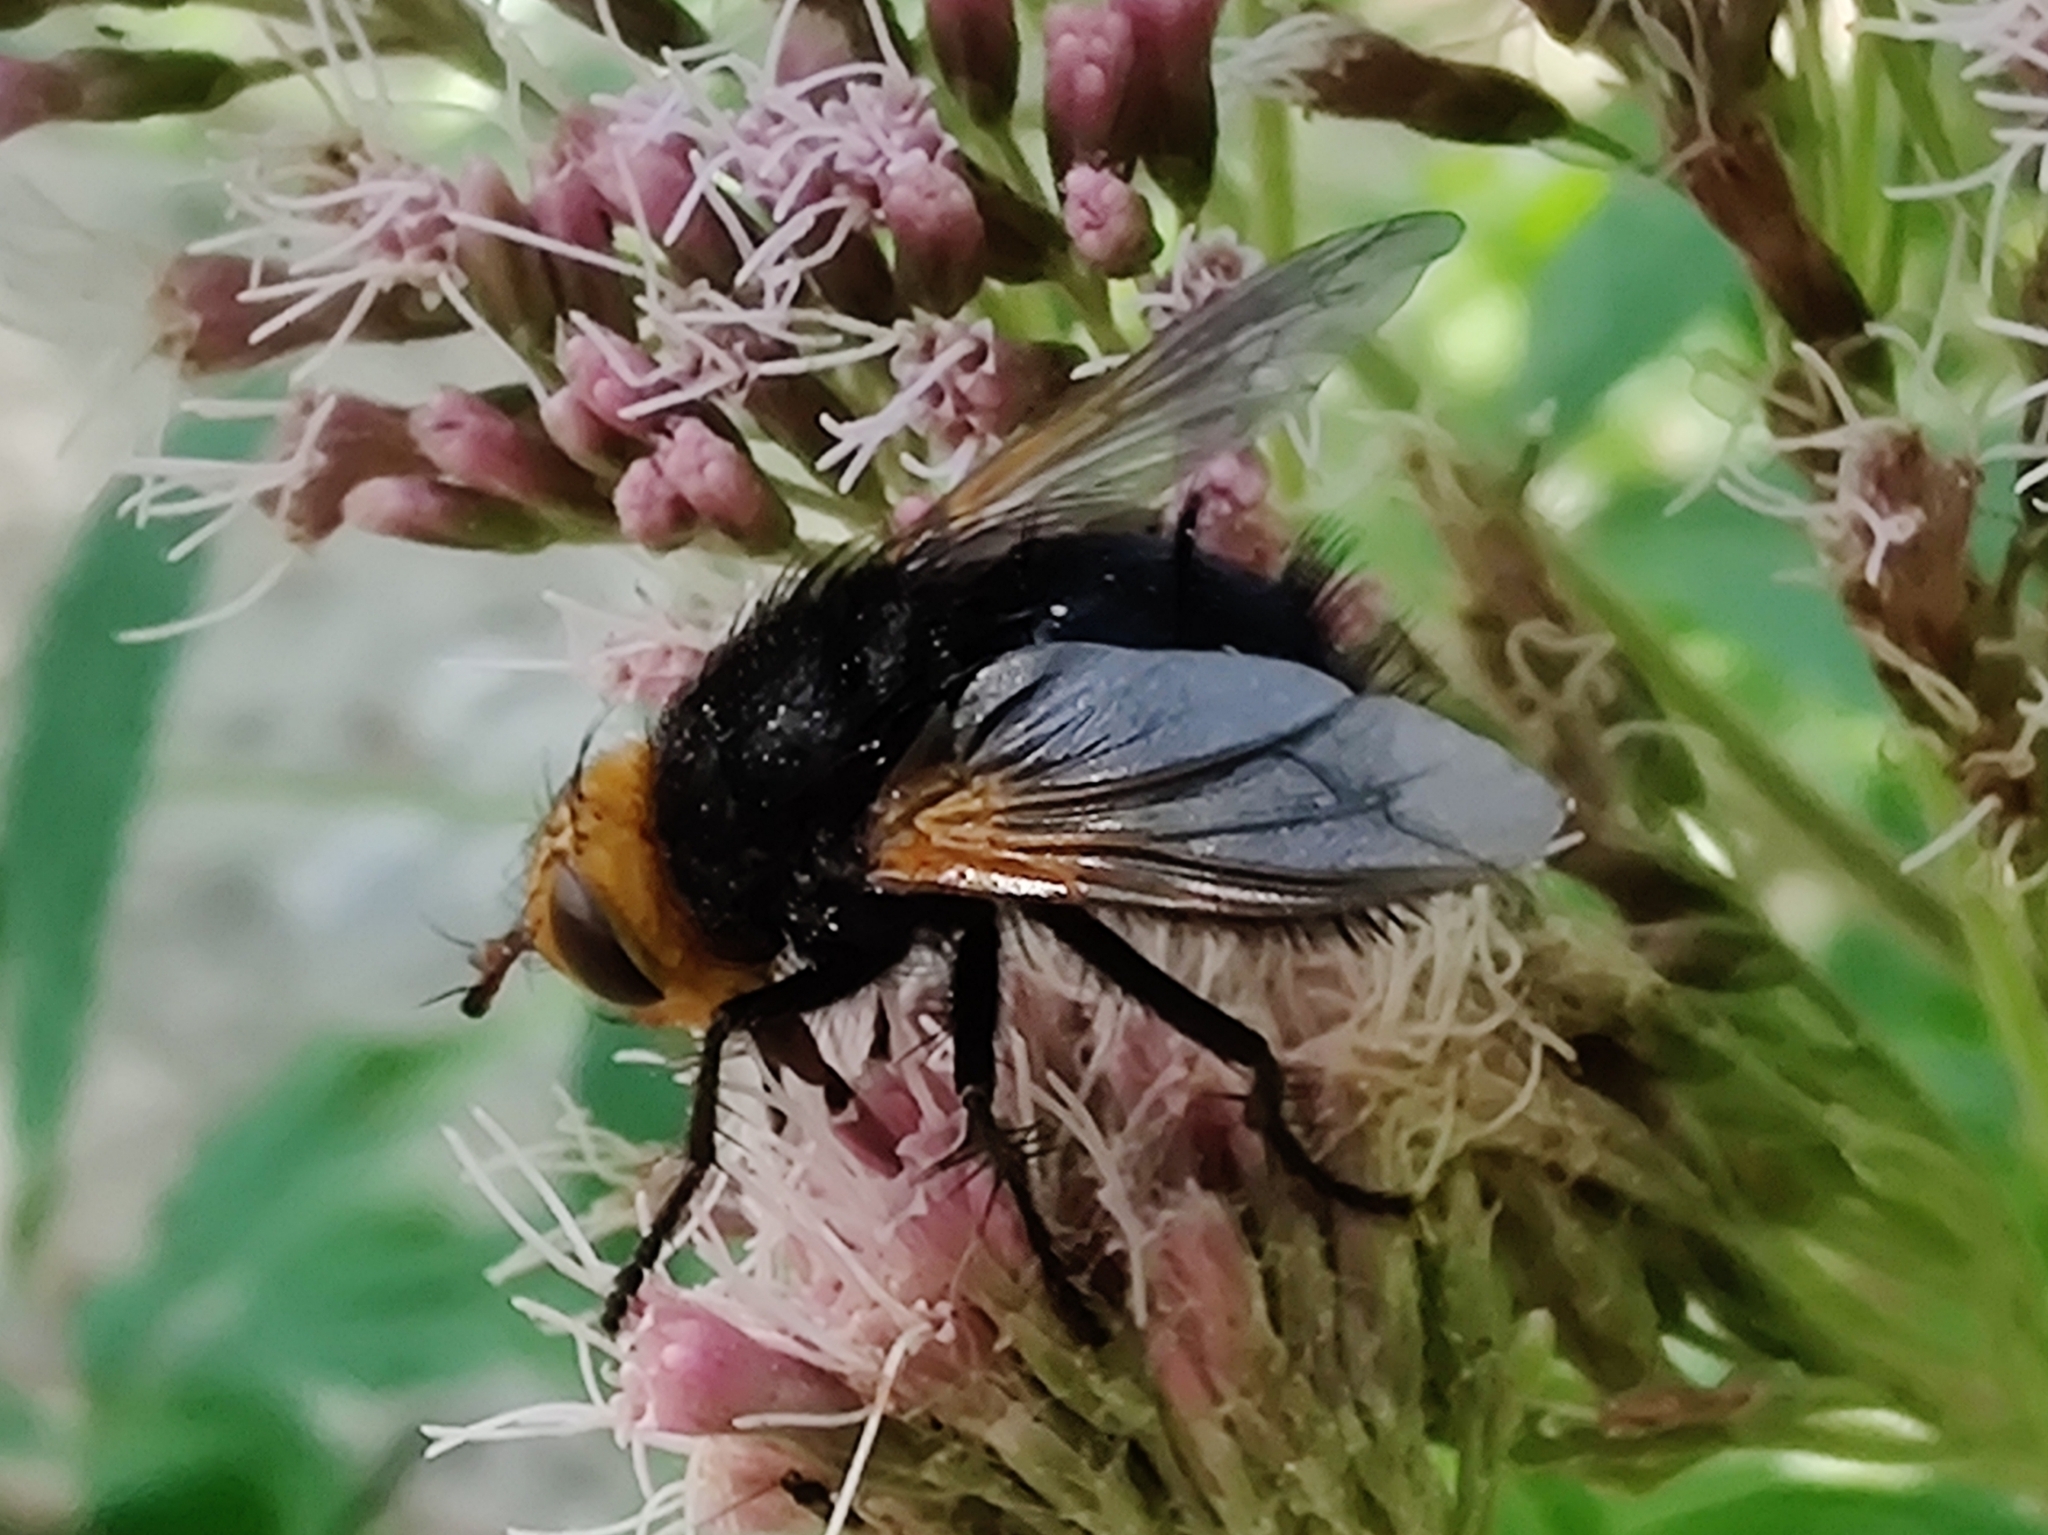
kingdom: Animalia
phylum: Arthropoda
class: Insecta
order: Diptera
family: Tachinidae
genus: Tachina
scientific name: Tachina grossa
